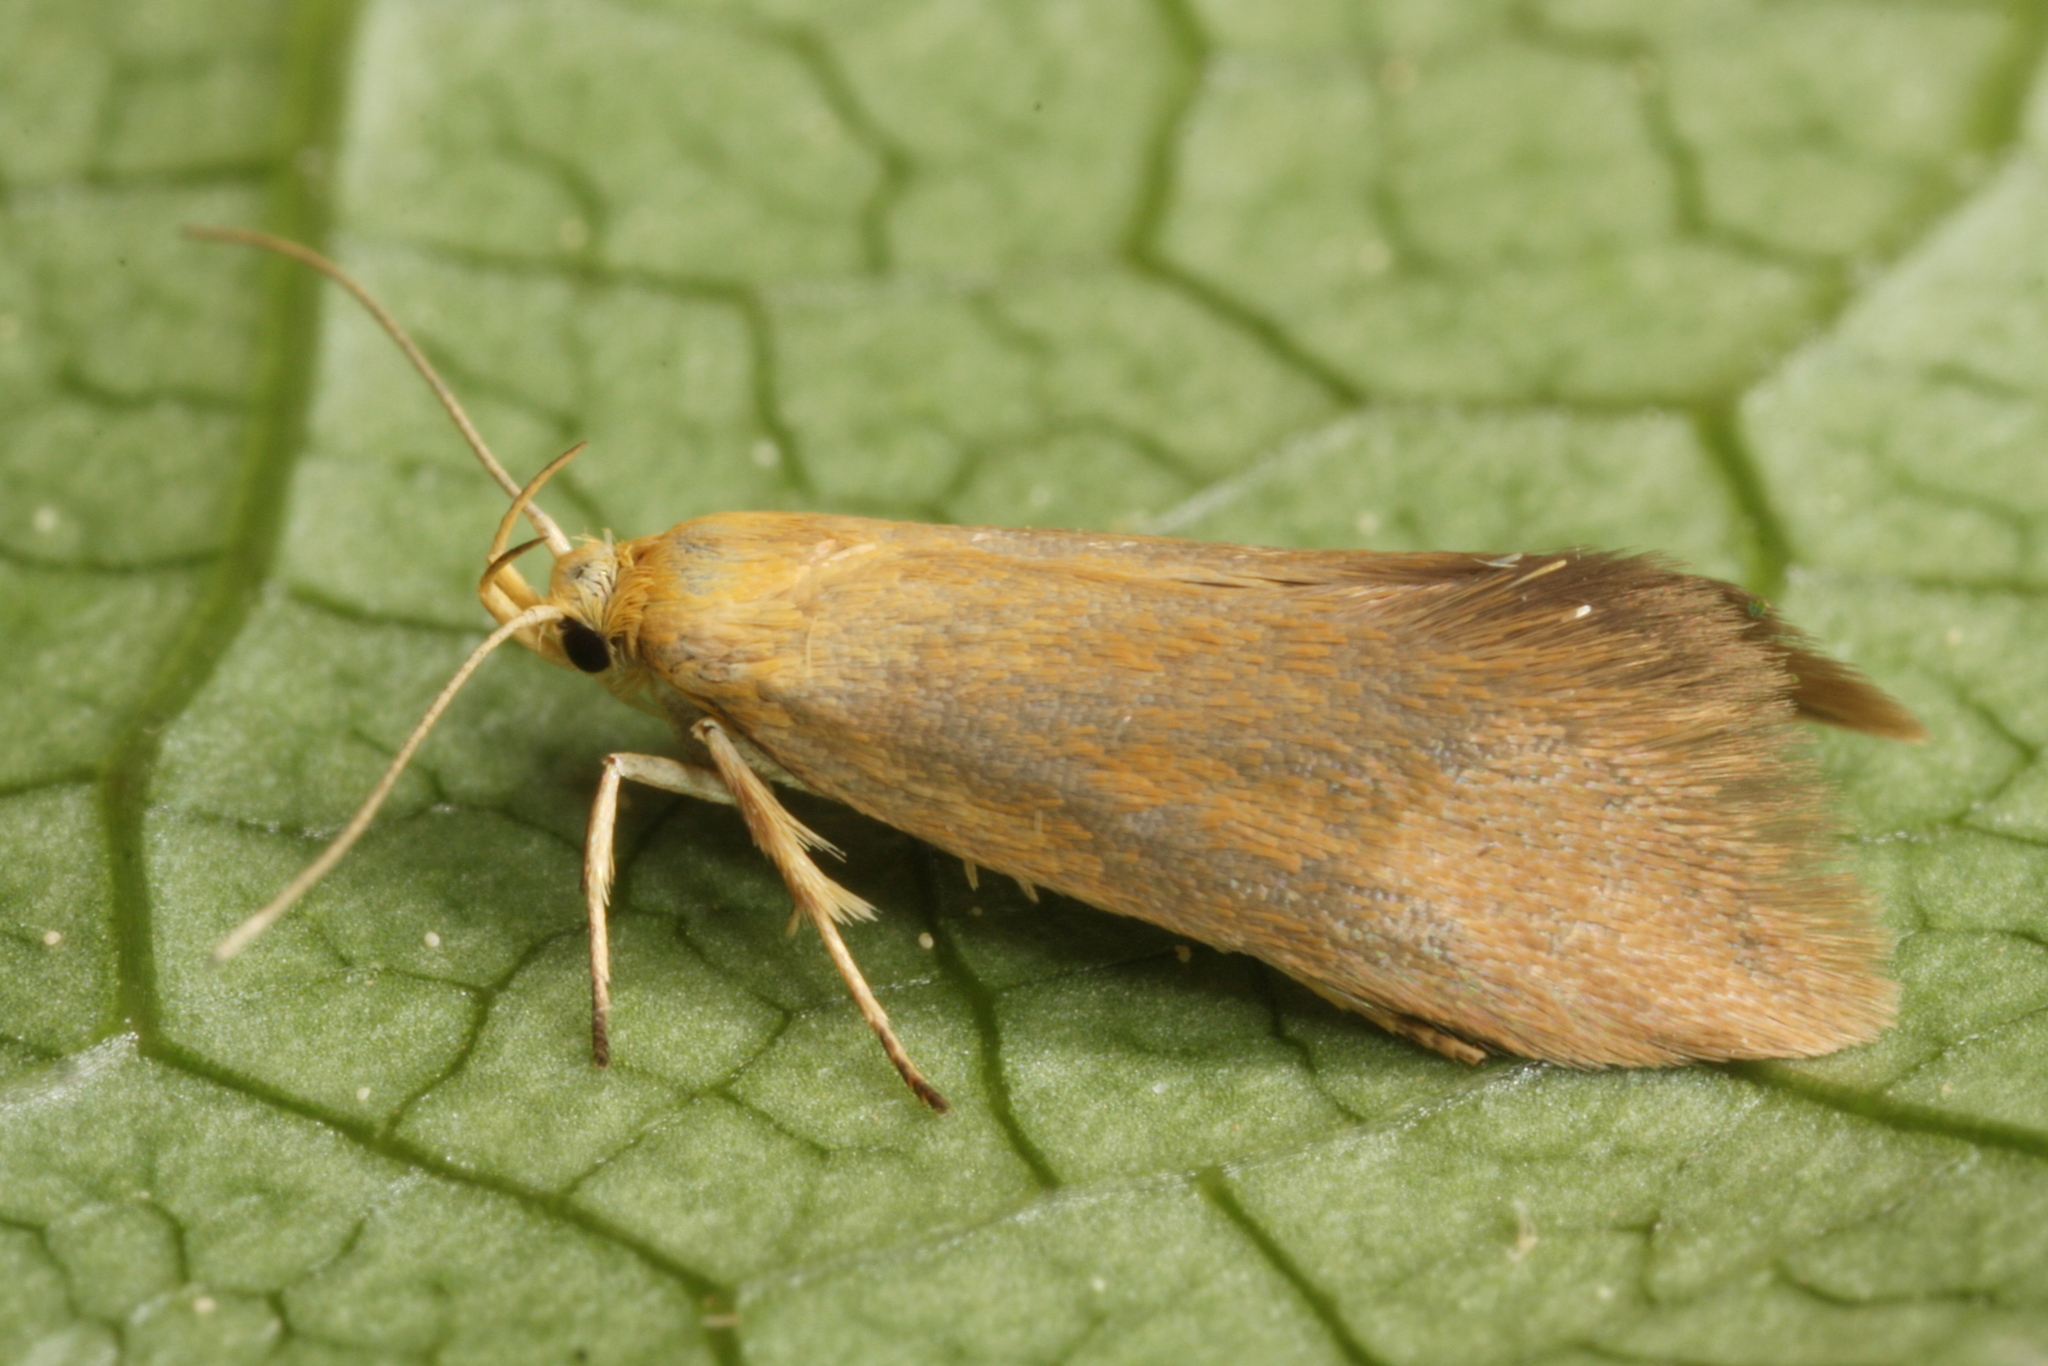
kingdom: Animalia
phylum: Arthropoda
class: Insecta
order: Lepidoptera
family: Oecophoridae
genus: Borkhausenia
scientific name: Borkhausenia Crassa tinctella
